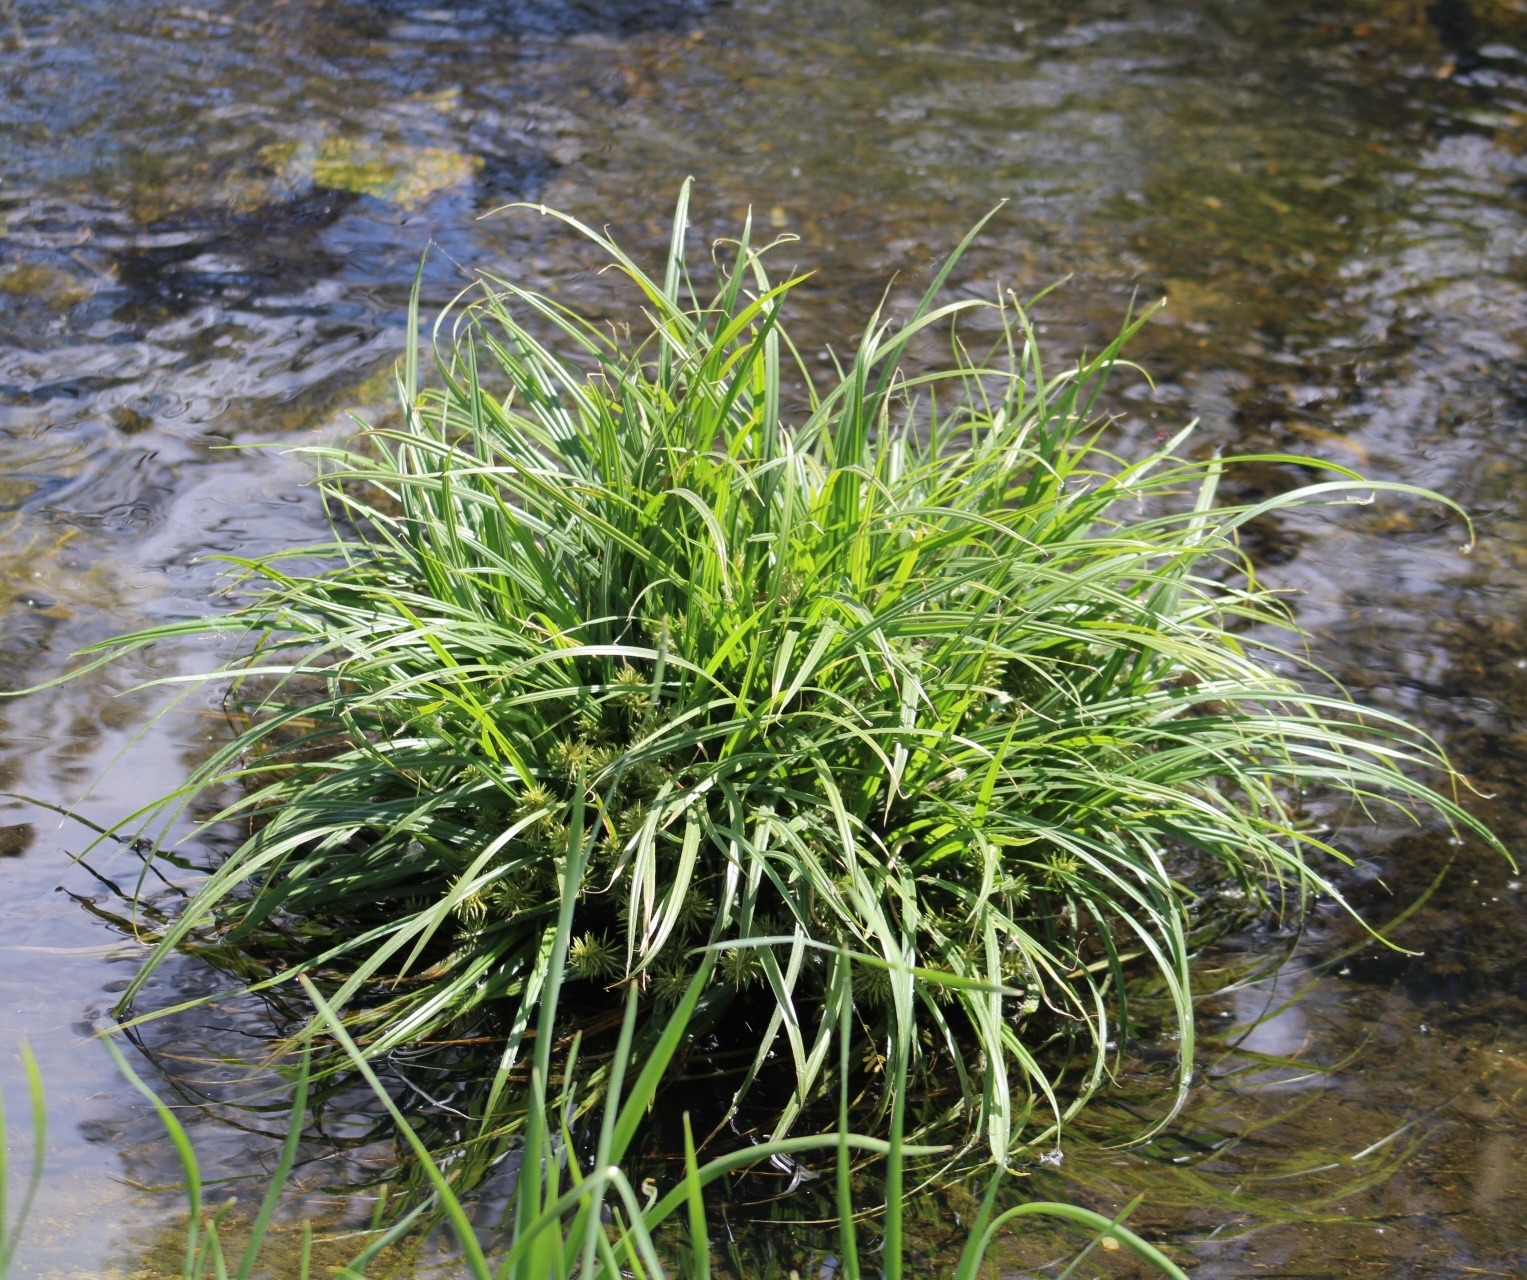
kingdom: Plantae
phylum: Tracheophyta
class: Liliopsida
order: Poales
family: Cyperaceae
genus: Cyperus
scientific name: Cyperus odoratus
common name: Fragrant flatsedge
